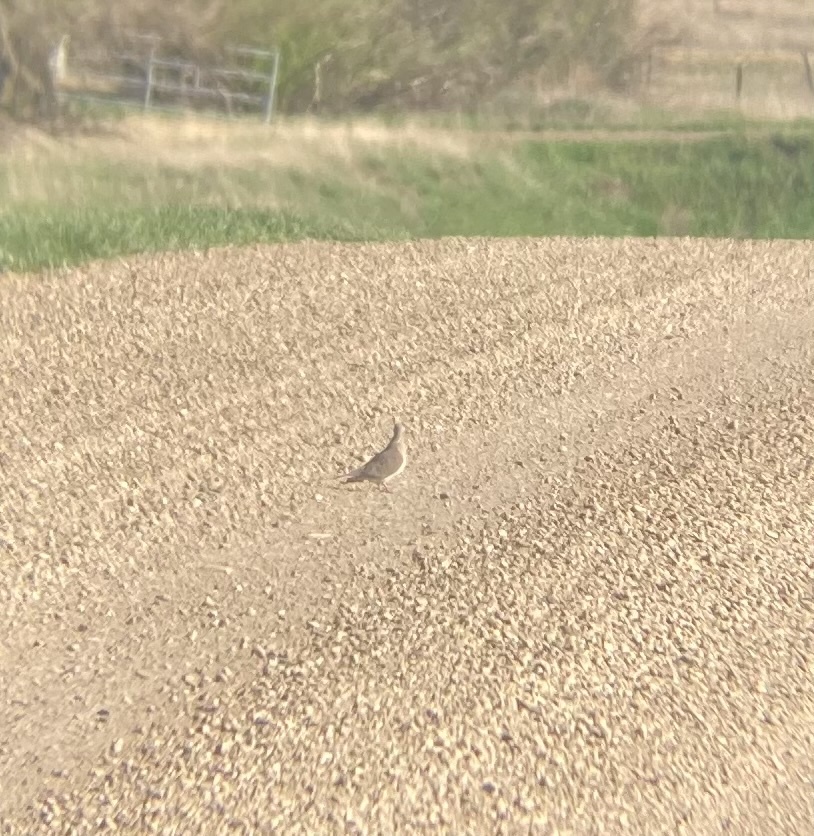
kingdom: Animalia
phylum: Chordata
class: Aves
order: Columbiformes
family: Columbidae
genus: Zenaida
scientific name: Zenaida macroura
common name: Mourning dove
